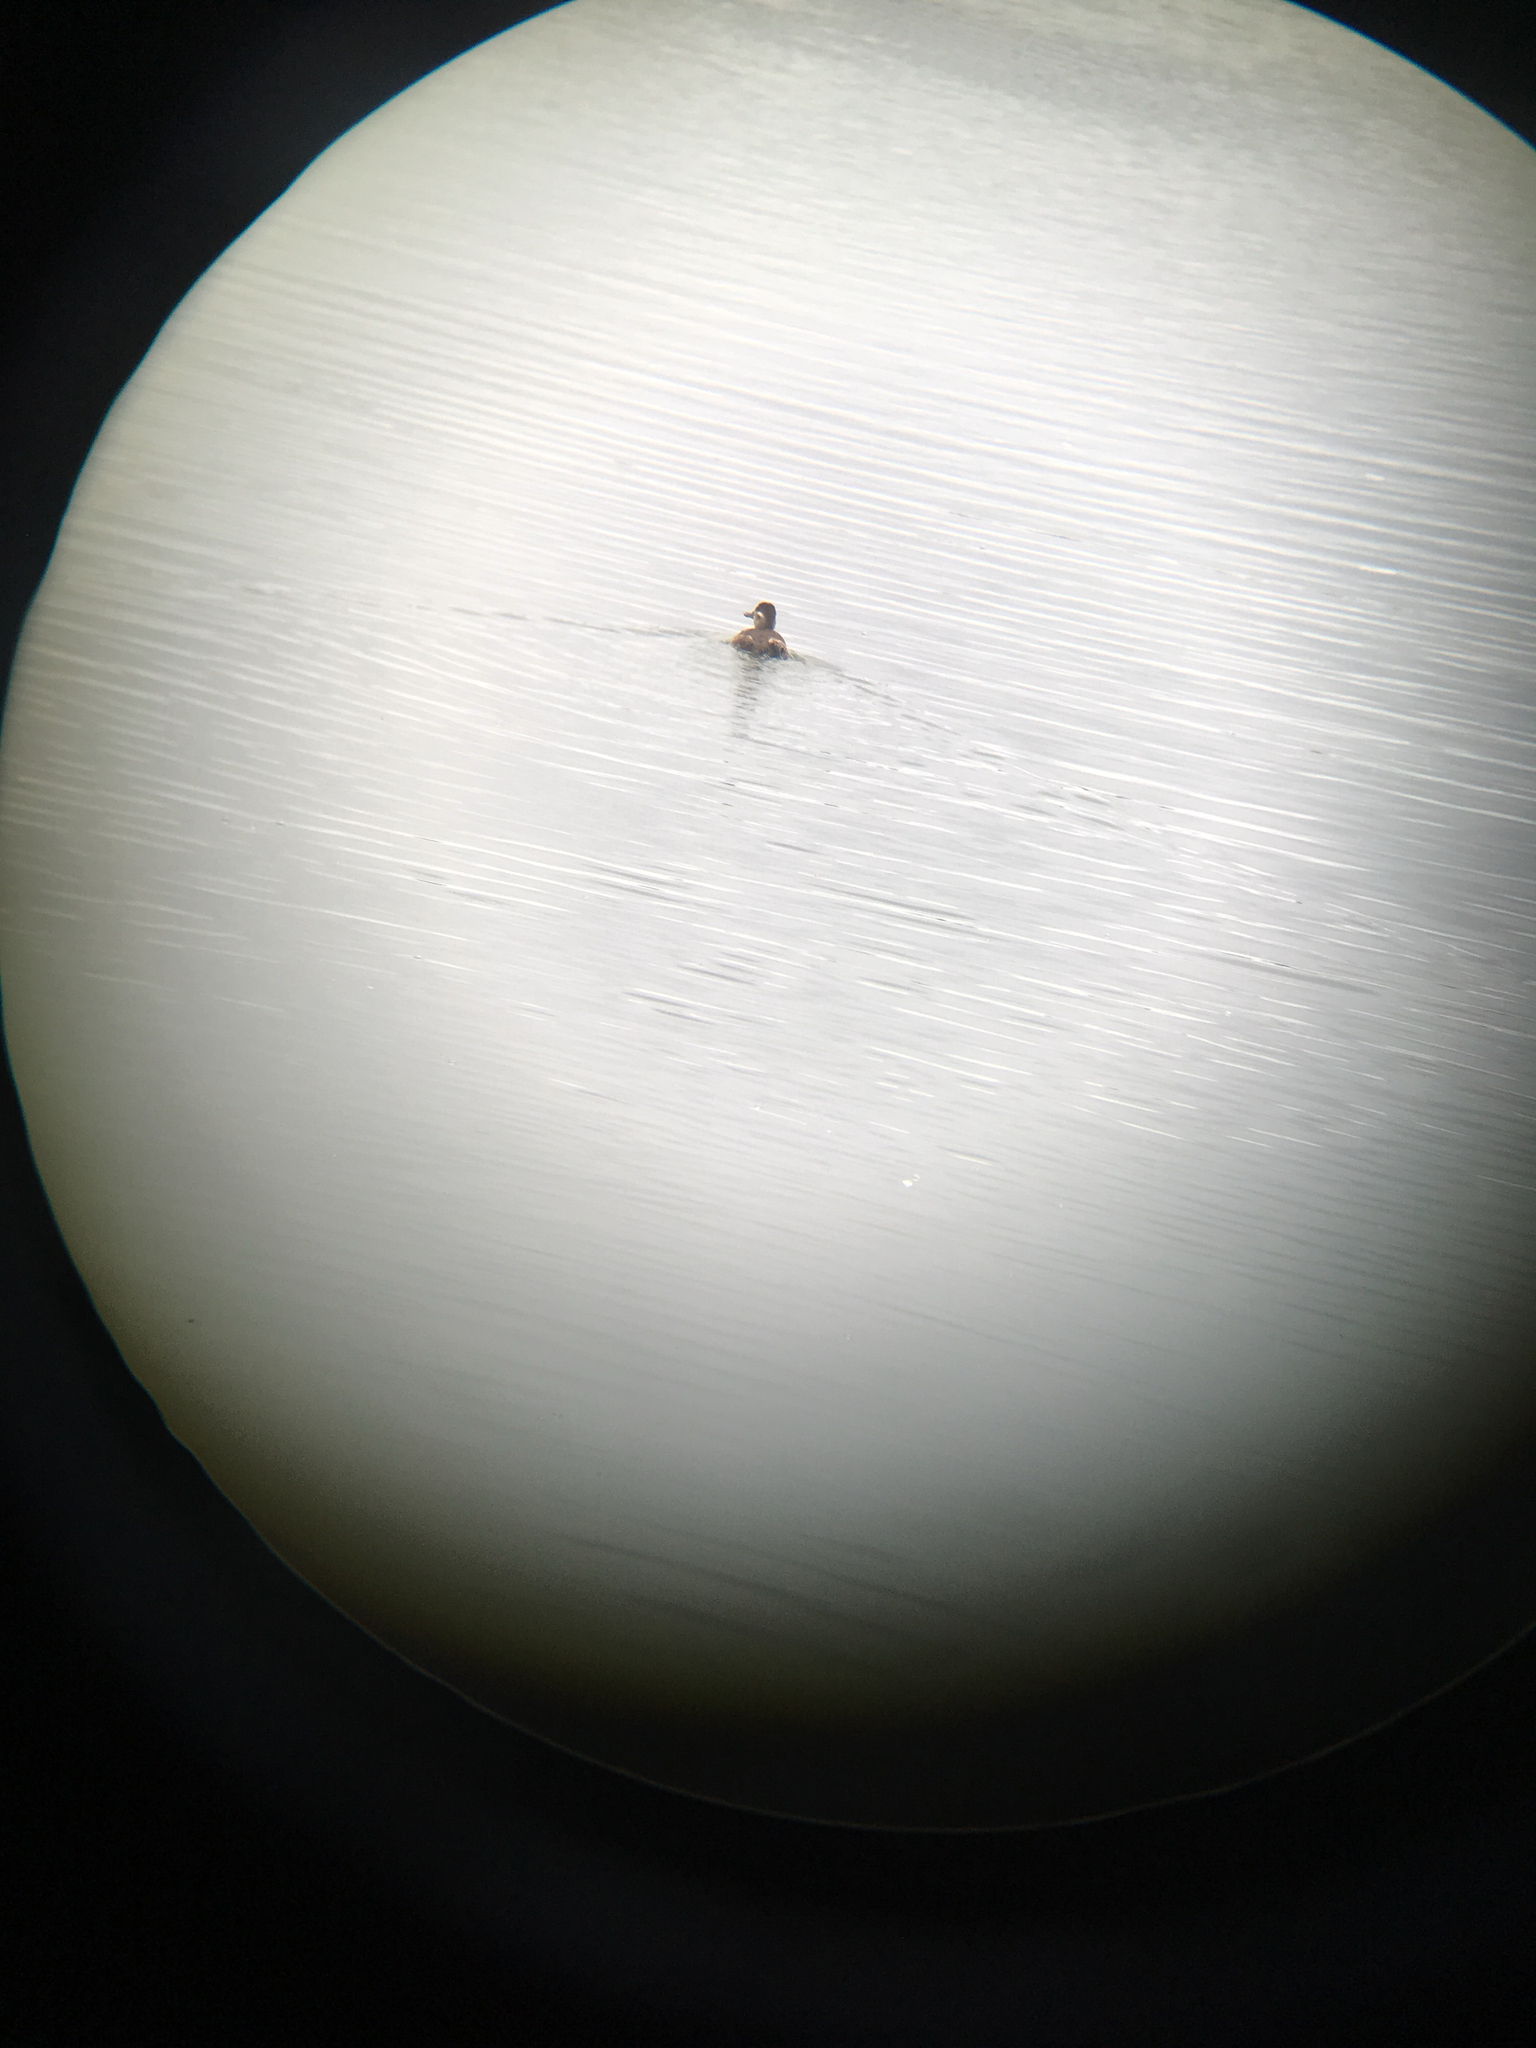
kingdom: Animalia
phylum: Chordata
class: Aves
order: Anseriformes
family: Anatidae
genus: Oxyura
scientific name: Oxyura jamaicensis
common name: Ruddy duck
